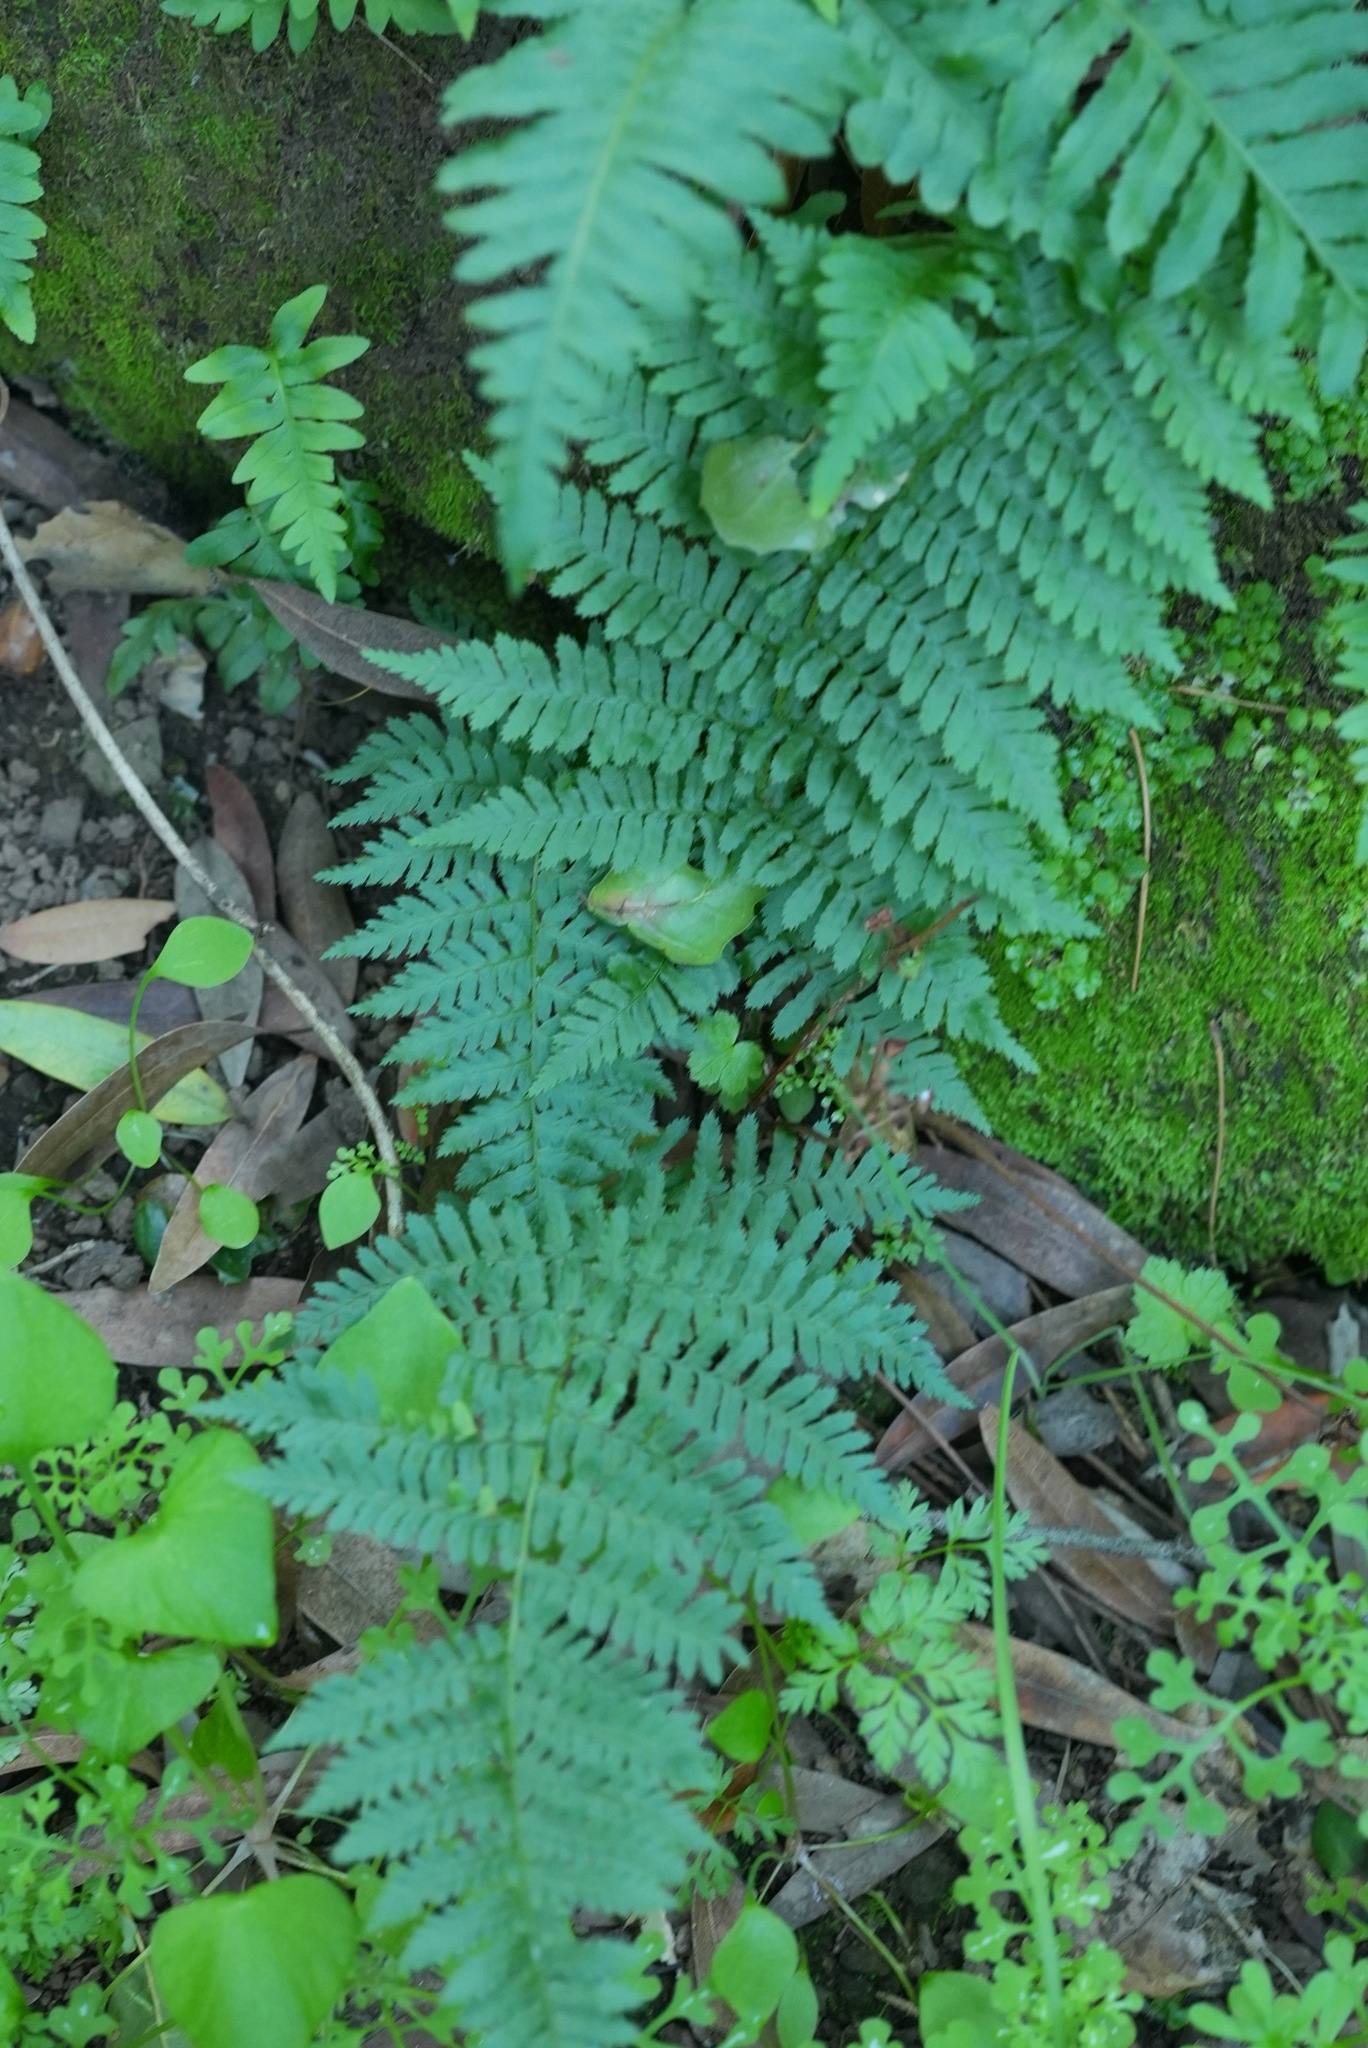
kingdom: Plantae
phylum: Tracheophyta
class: Polypodiopsida
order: Polypodiales
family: Dryopteridaceae
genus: Dryopteris
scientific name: Dryopteris arguta
